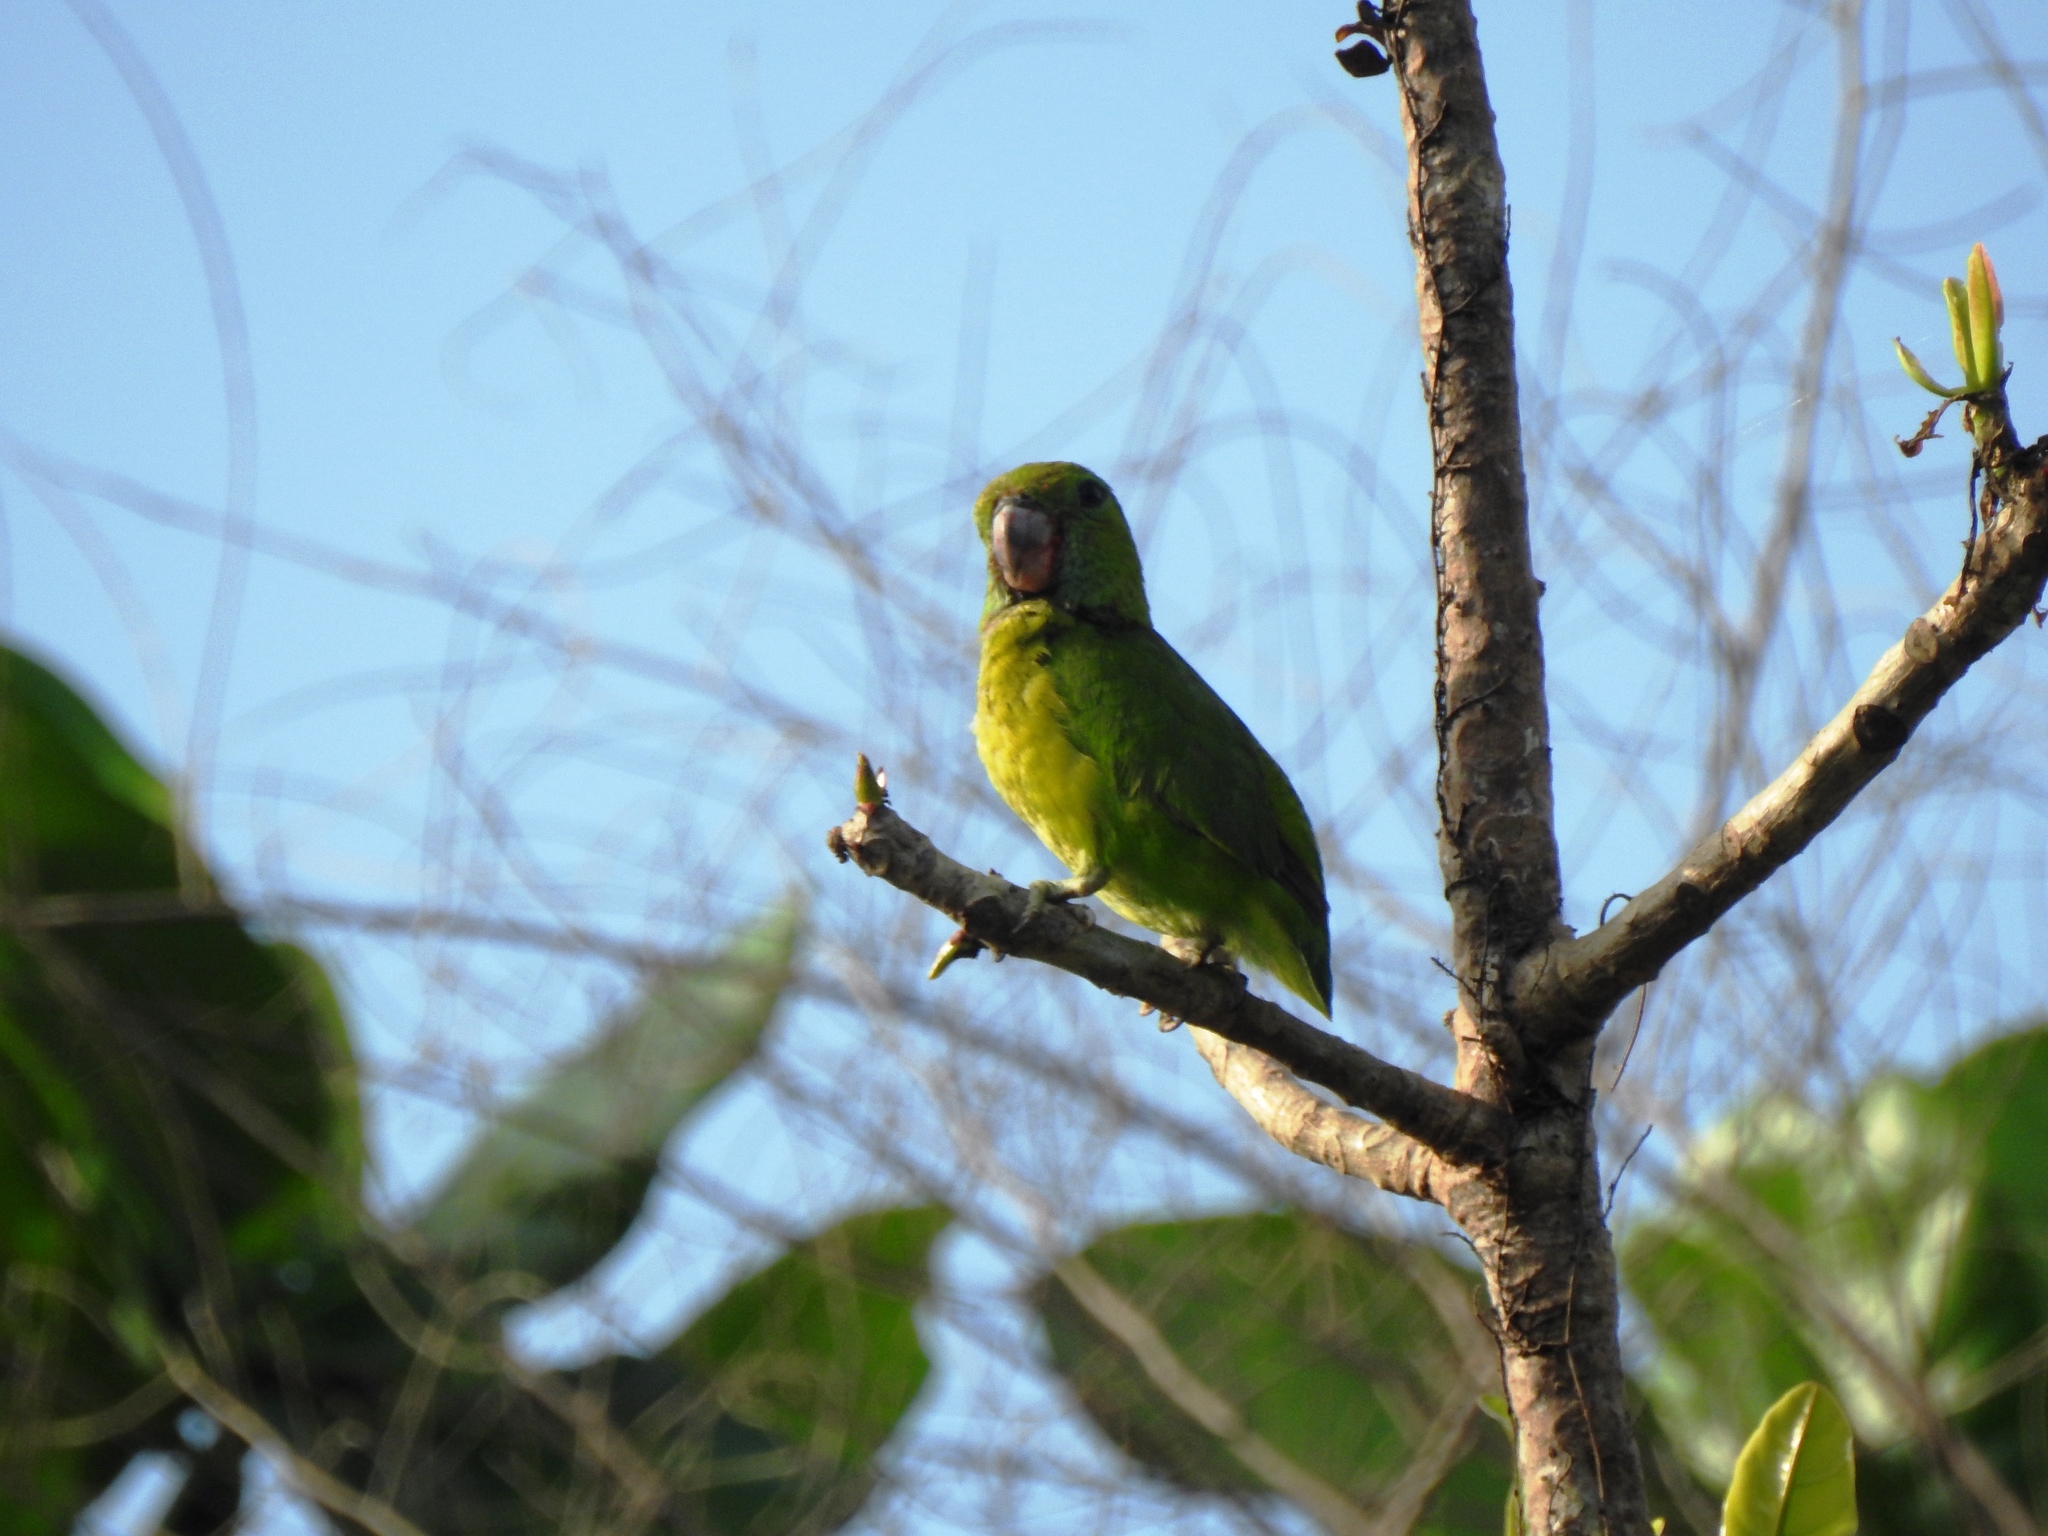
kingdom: Animalia
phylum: Chordata
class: Aves
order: Psittaciformes
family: Psittacidae
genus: Bolbopsittacus
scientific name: Bolbopsittacus lunulatus
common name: Guaiabero
